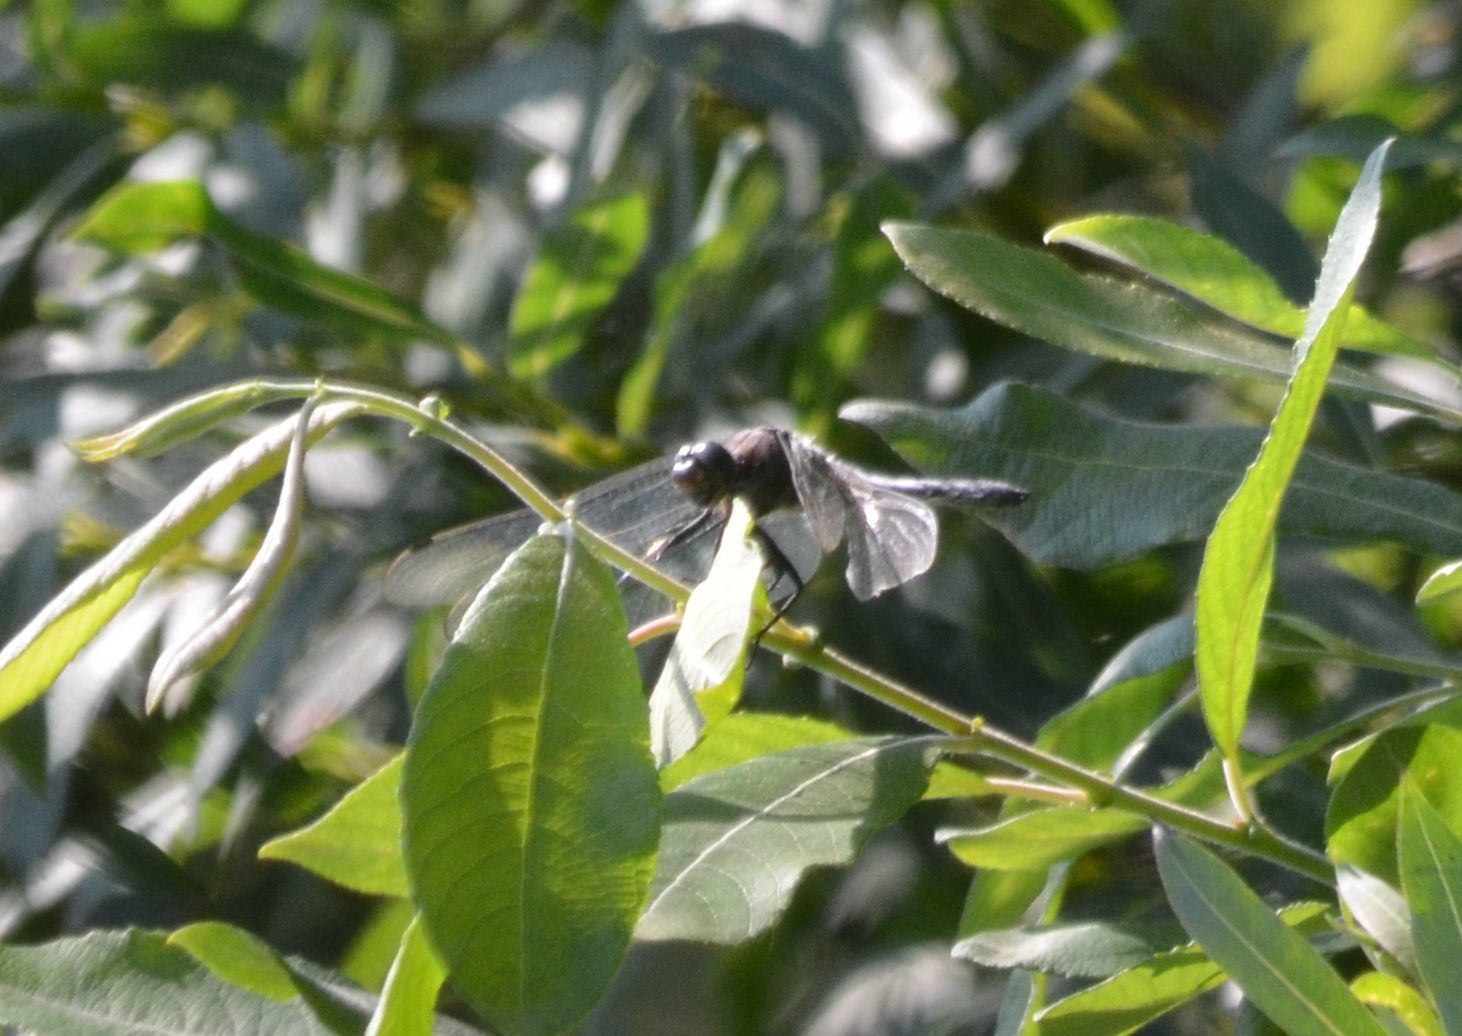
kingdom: Animalia
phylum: Arthropoda
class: Insecta
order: Odonata
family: Libellulidae
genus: Orthetrum
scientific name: Orthetrum cancellatum
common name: Black-tailed skimmer
